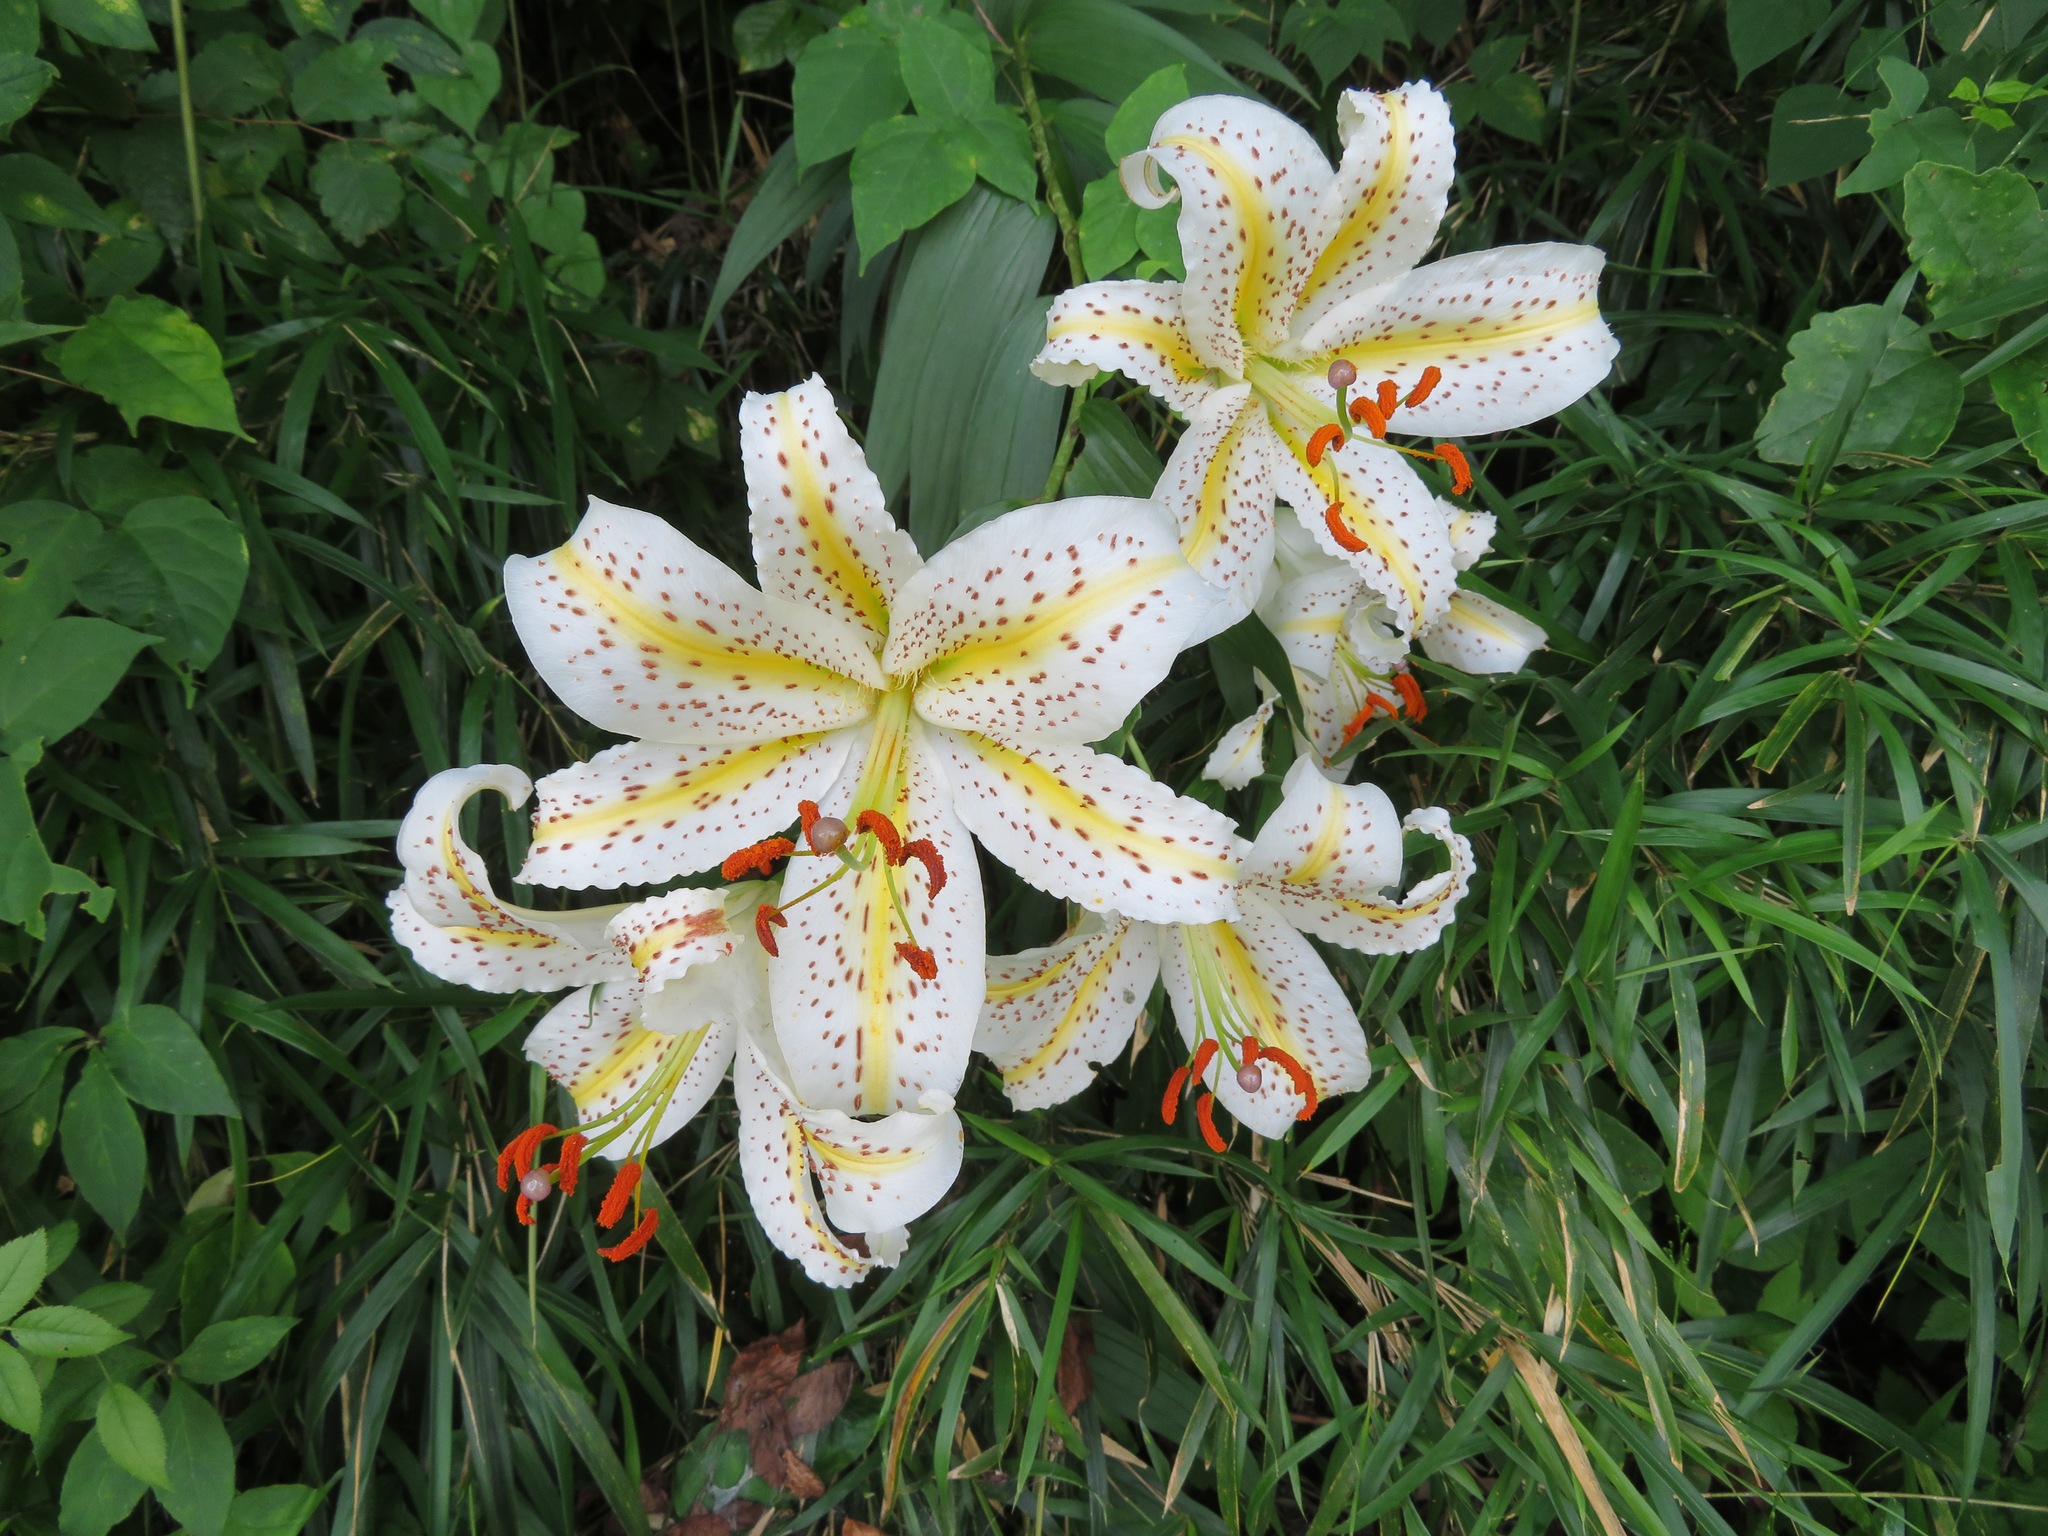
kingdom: Plantae
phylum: Tracheophyta
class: Liliopsida
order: Liliales
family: Liliaceae
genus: Lilium
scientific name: Lilium auratum
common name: Golden-ray lily
